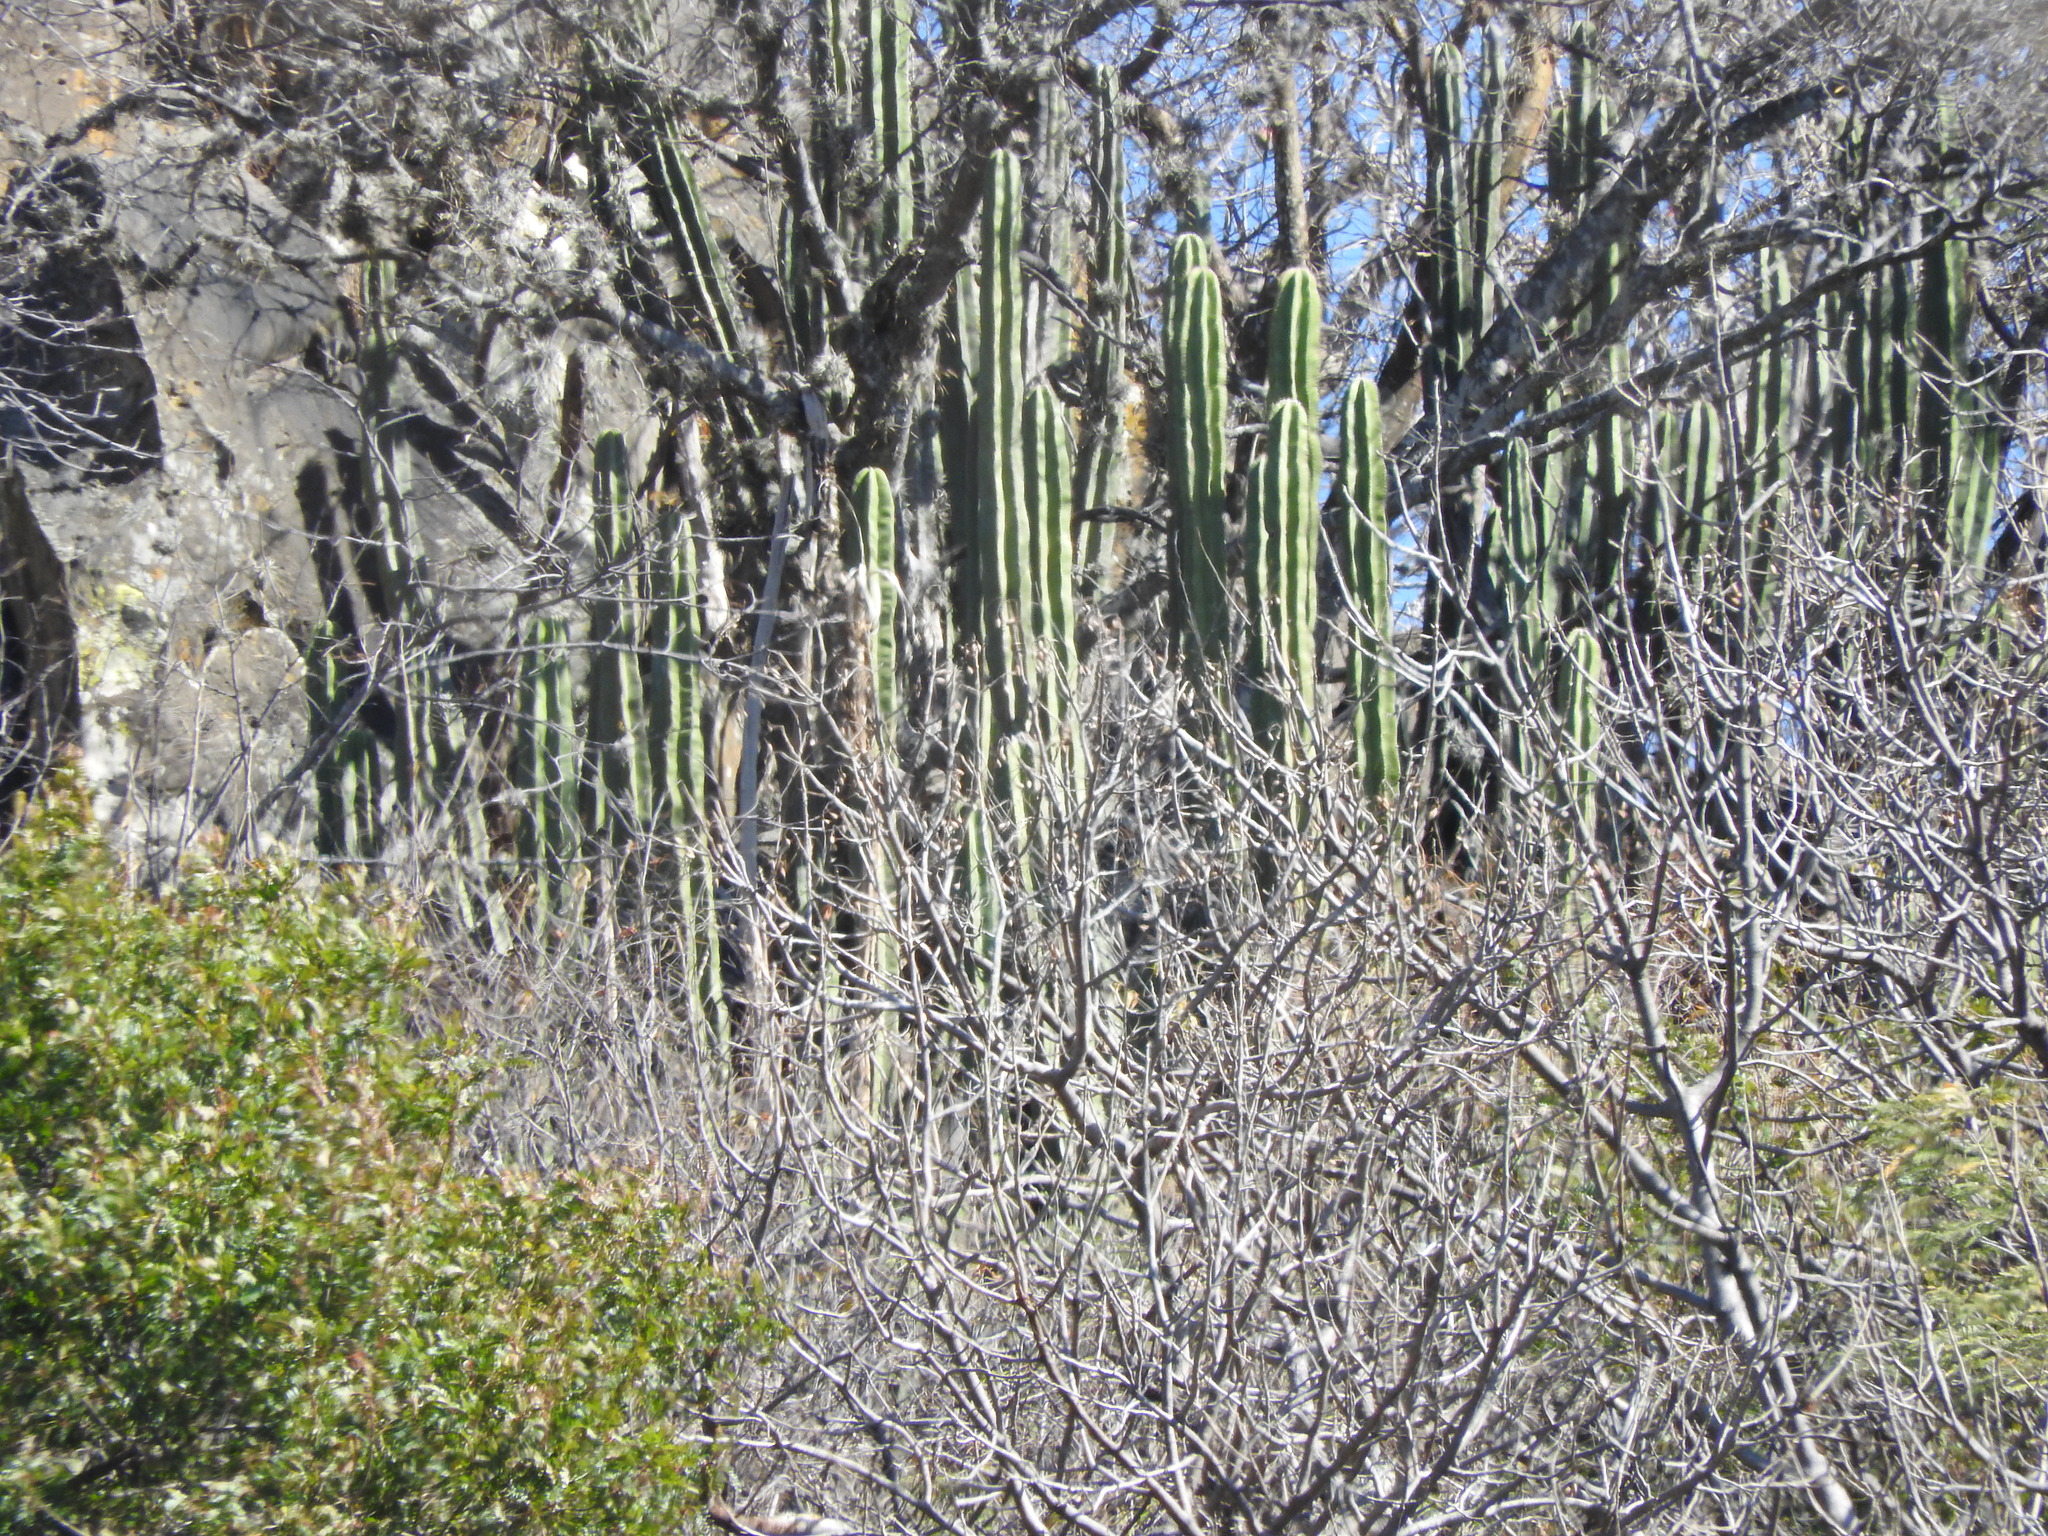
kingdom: Plantae
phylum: Tracheophyta
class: Magnoliopsida
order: Caryophyllales
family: Cactaceae
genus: Stenocereus
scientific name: Stenocereus dumortieri
